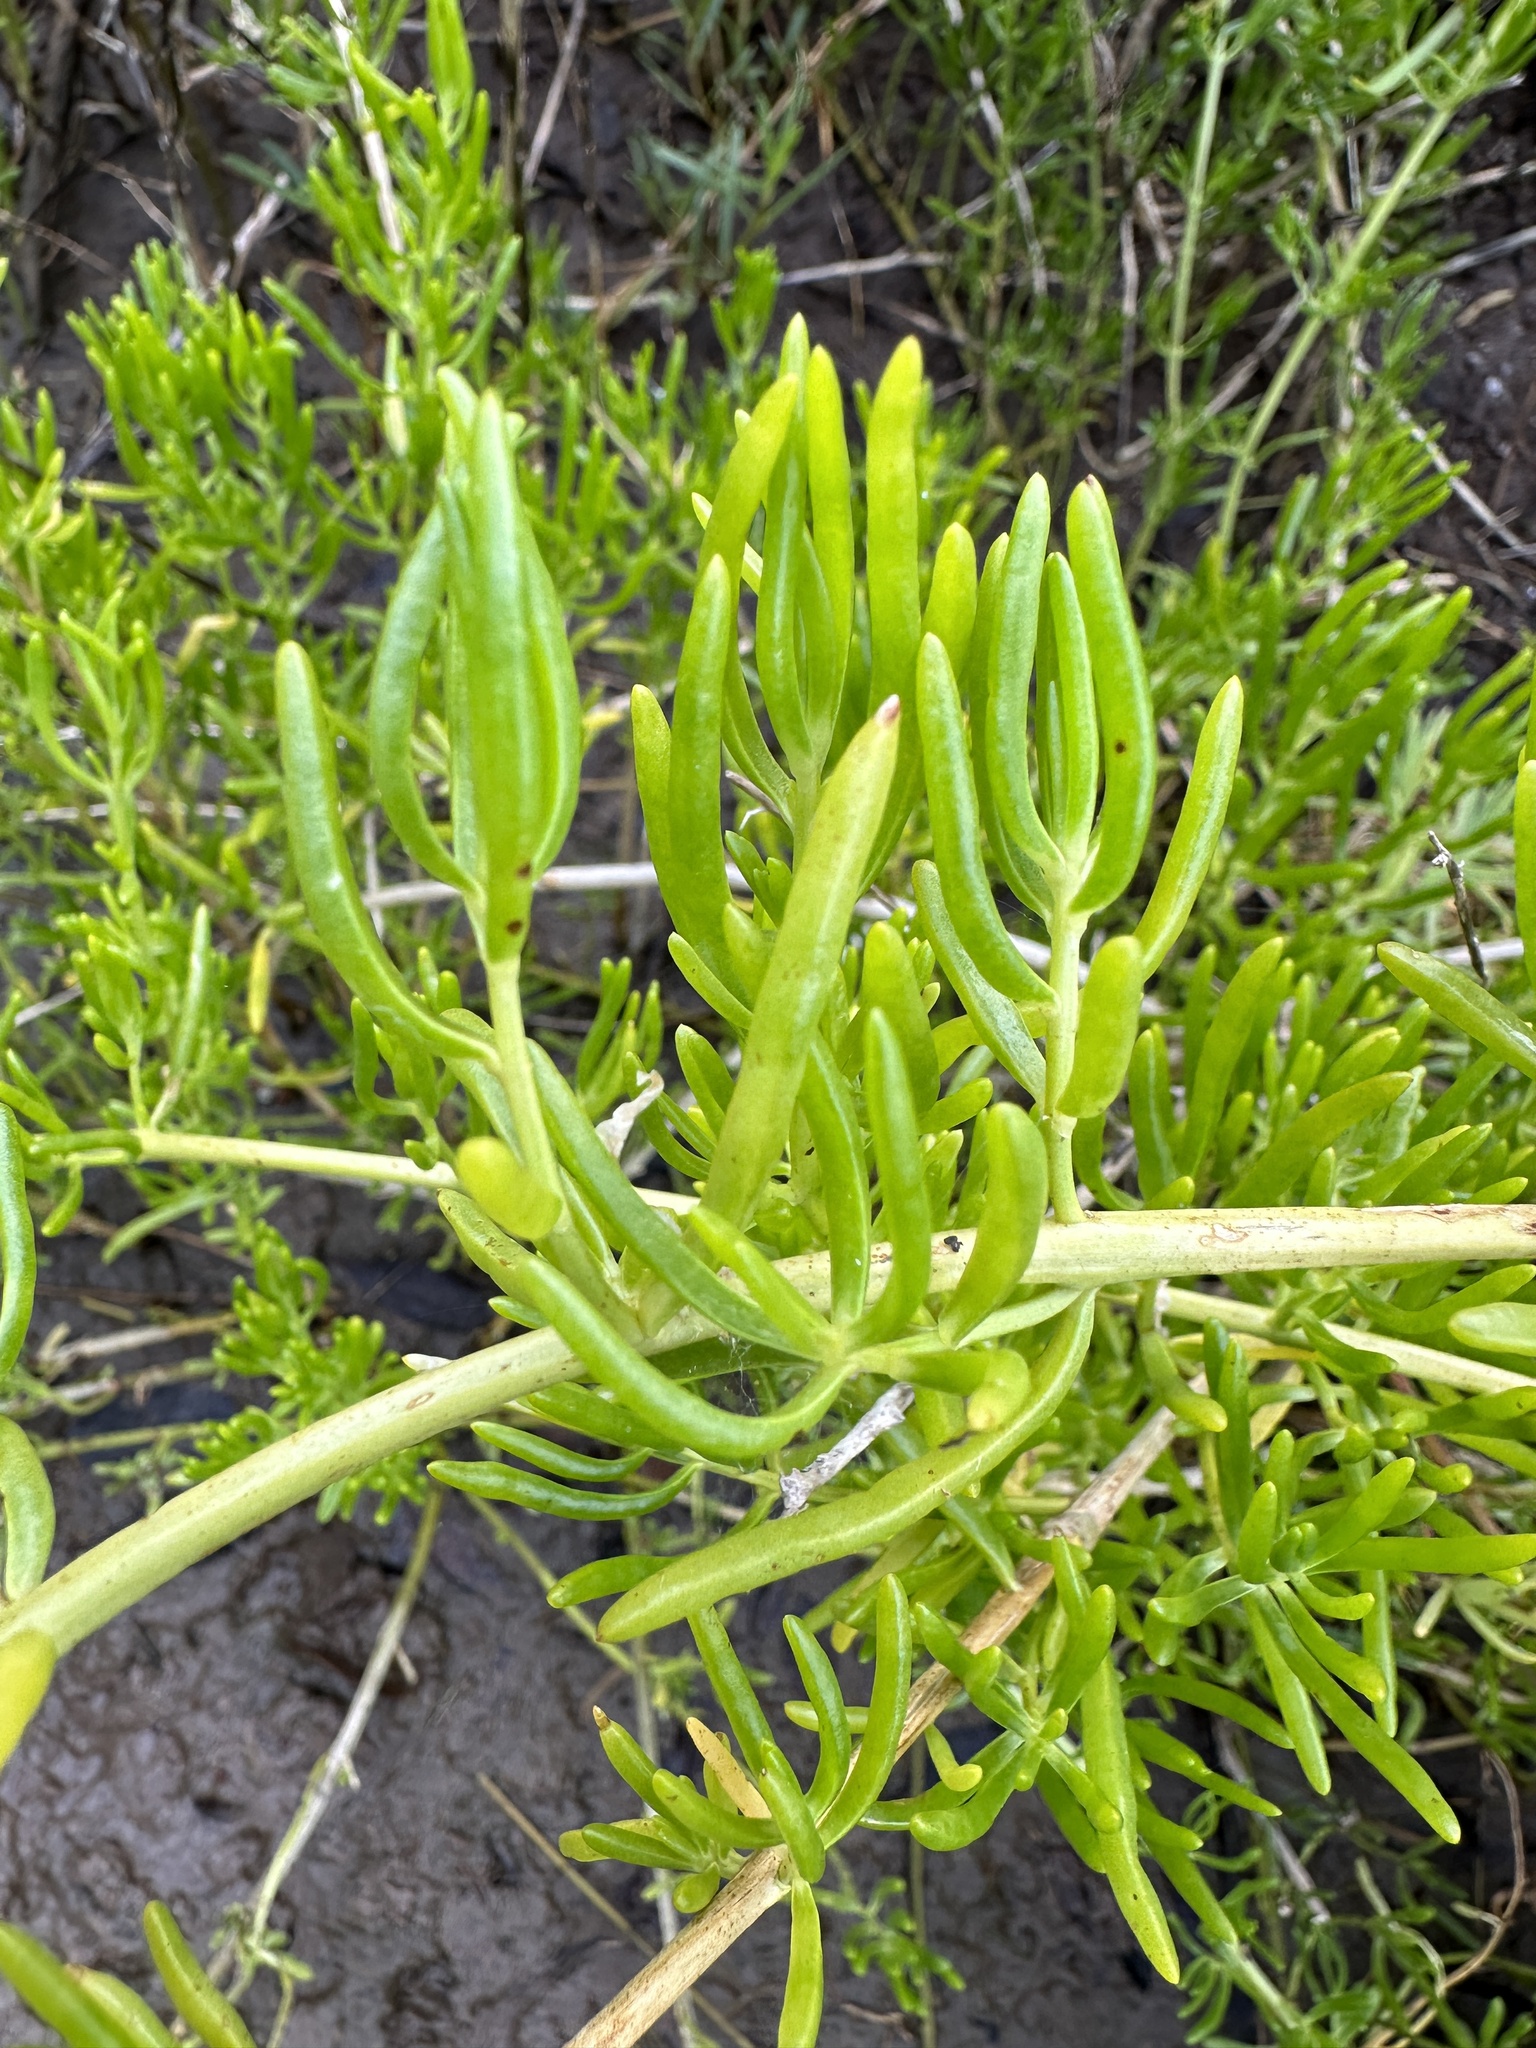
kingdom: Plantae
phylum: Tracheophyta
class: Magnoliopsida
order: Brassicales
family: Bataceae
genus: Batis
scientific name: Batis maritima
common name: Turtleweed
